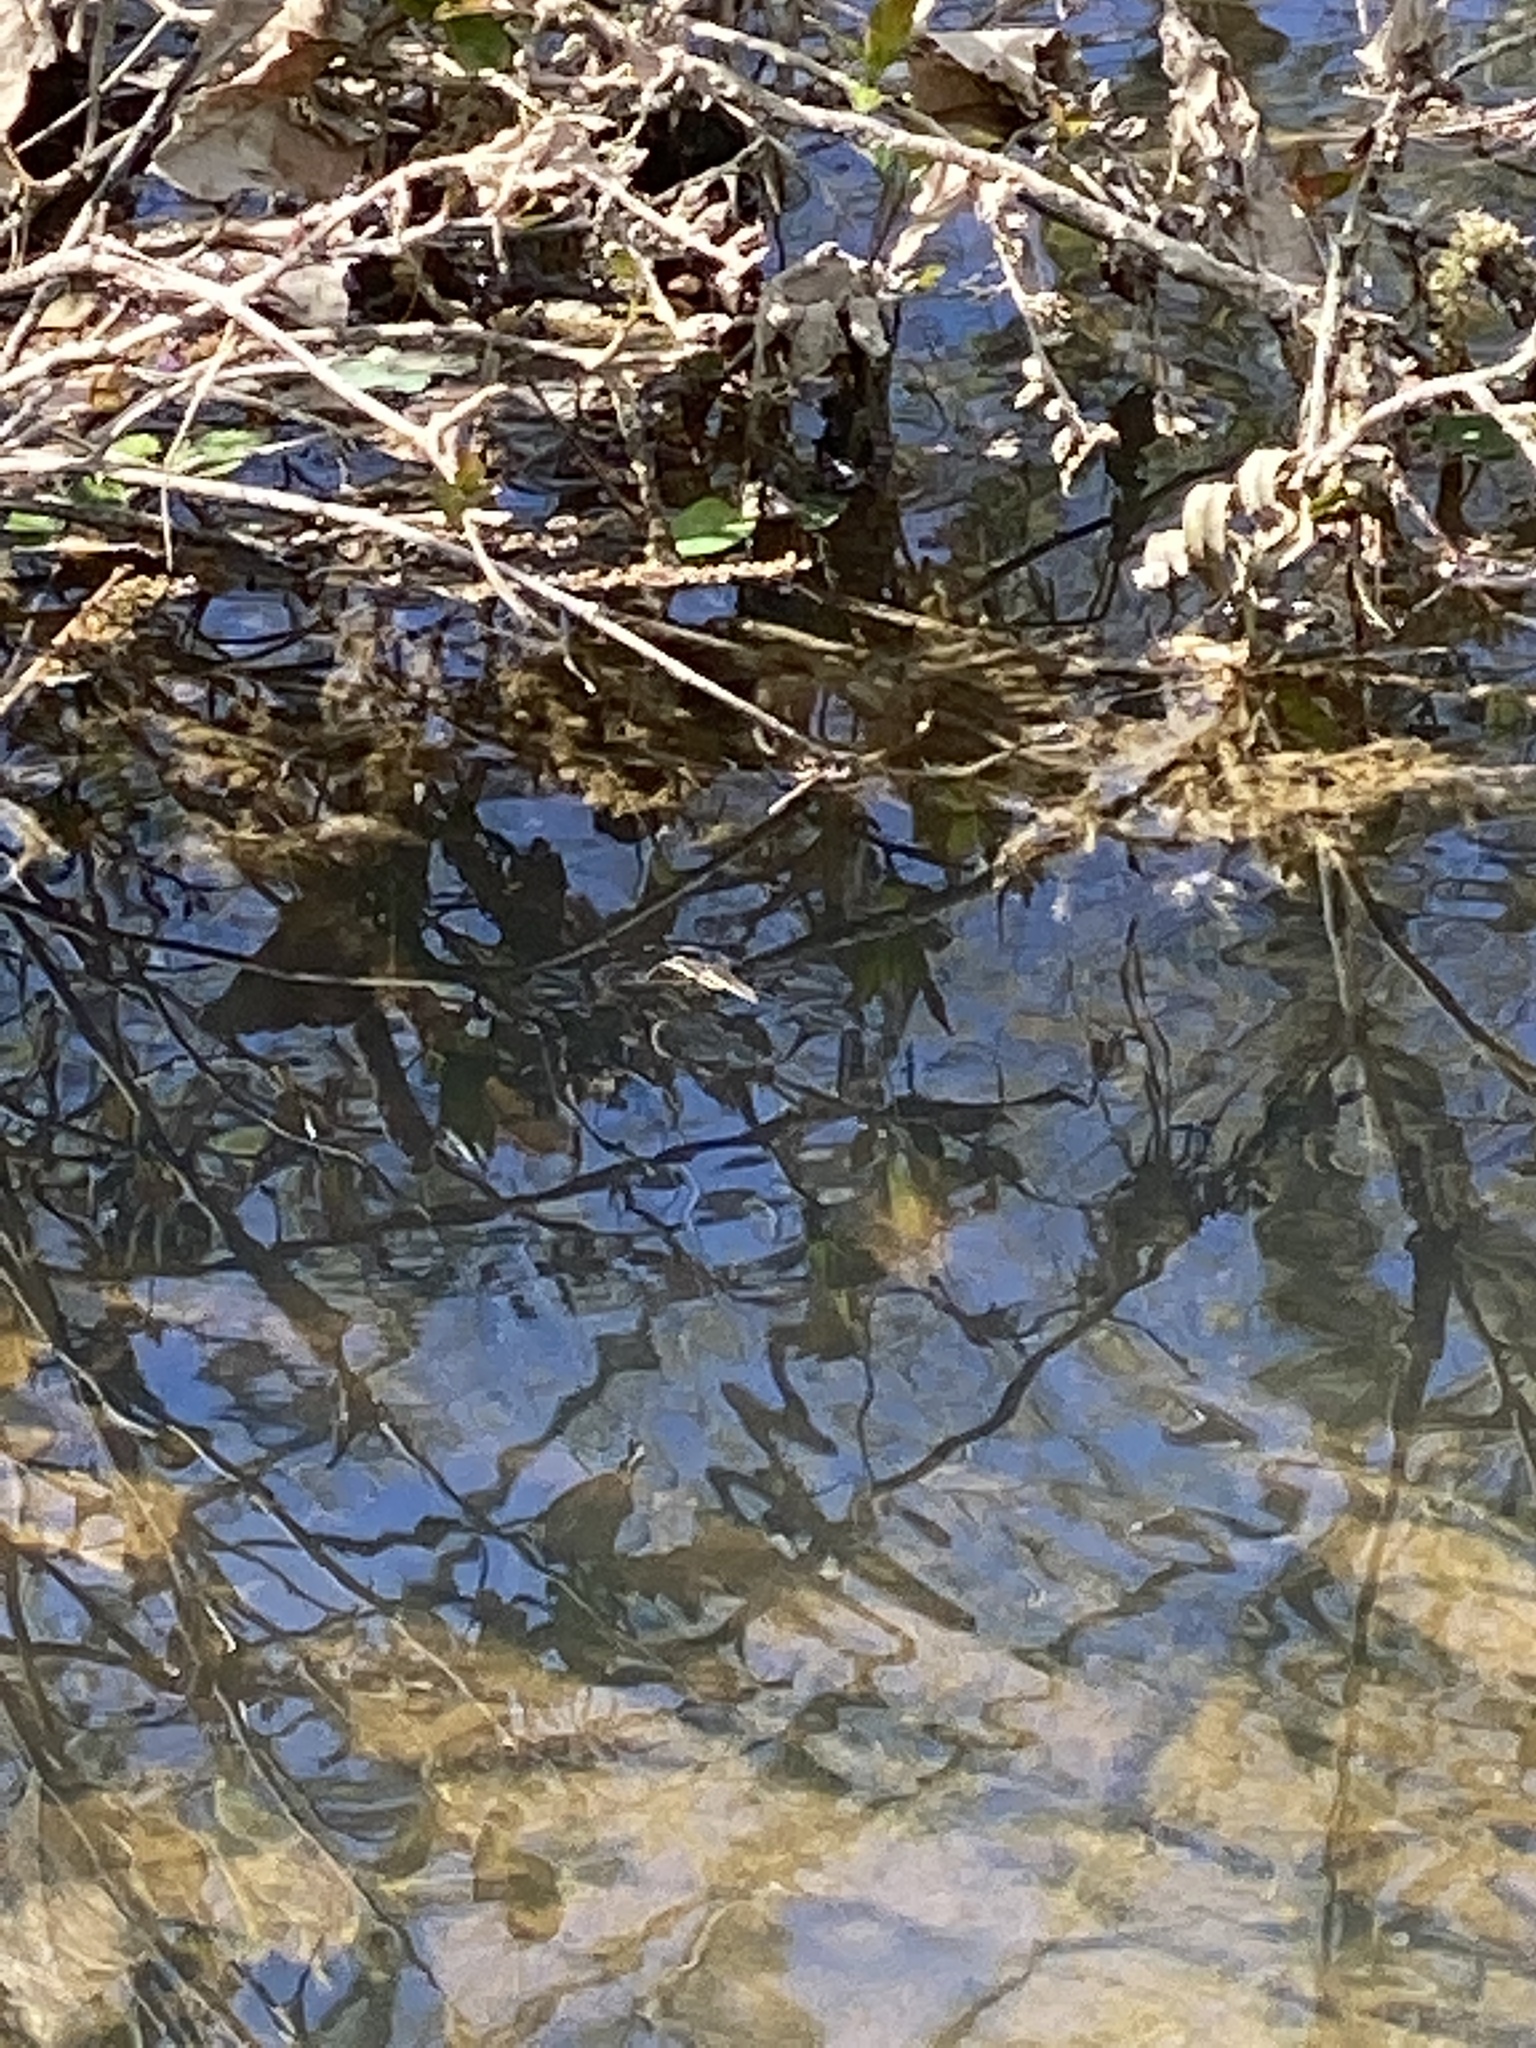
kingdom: Animalia
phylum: Arthropoda
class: Insecta
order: Hemiptera
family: Gerridae
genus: Aquarius
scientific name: Aquarius
